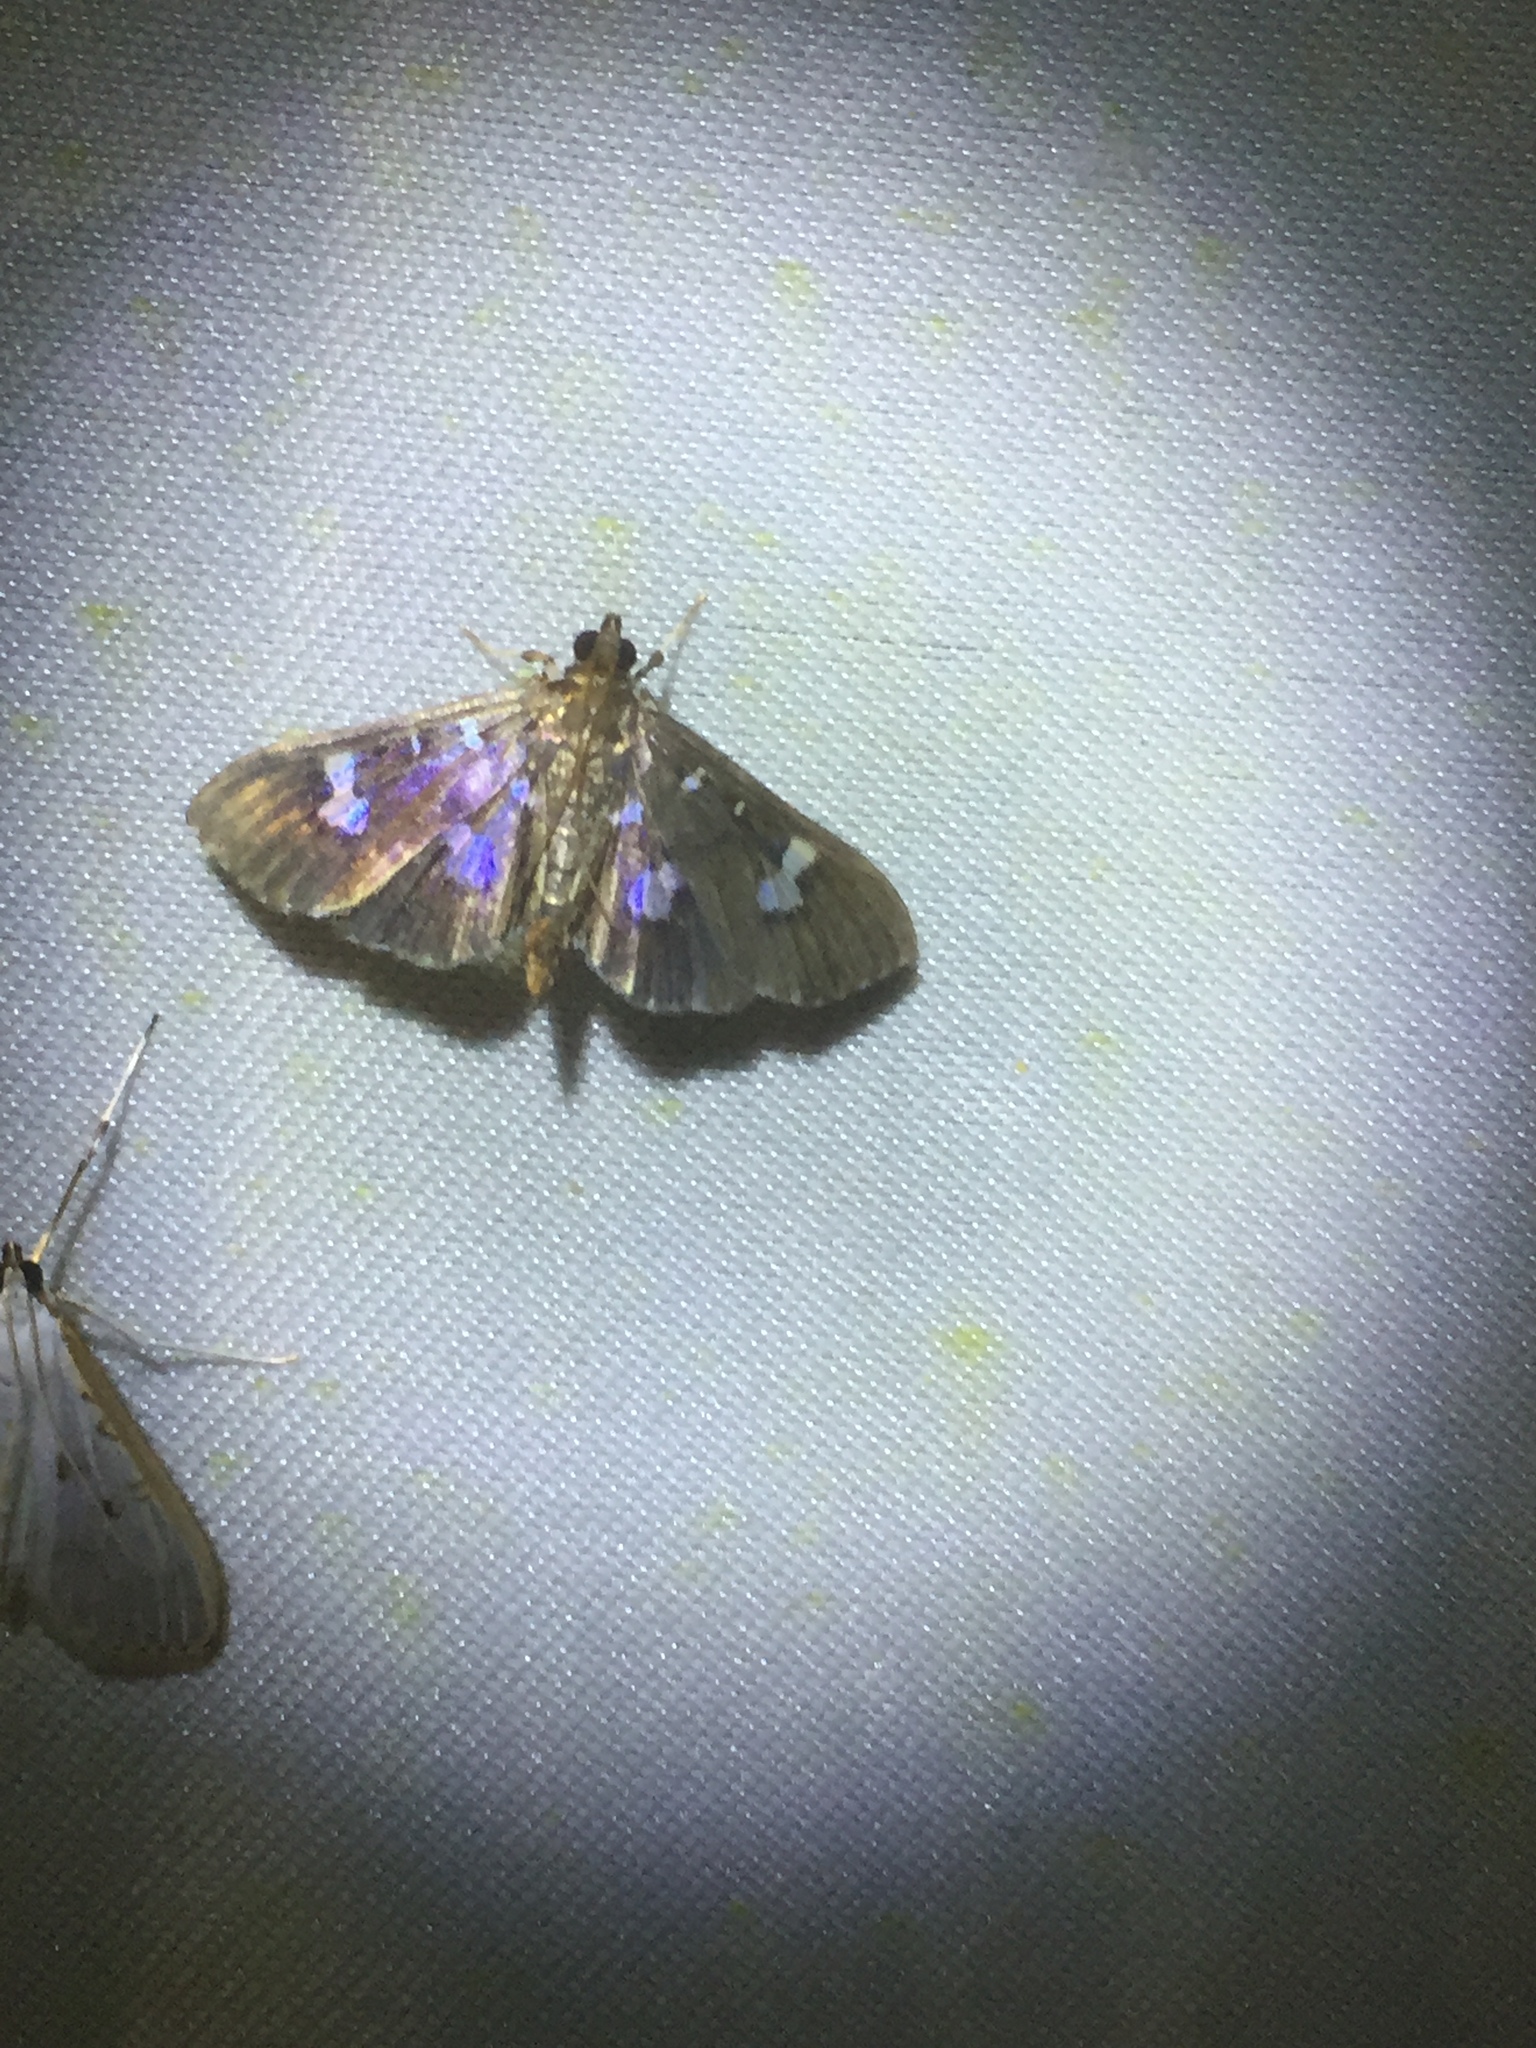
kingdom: Animalia
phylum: Arthropoda
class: Insecta
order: Lepidoptera
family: Crambidae
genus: Herpetogramma
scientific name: Herpetogramma
